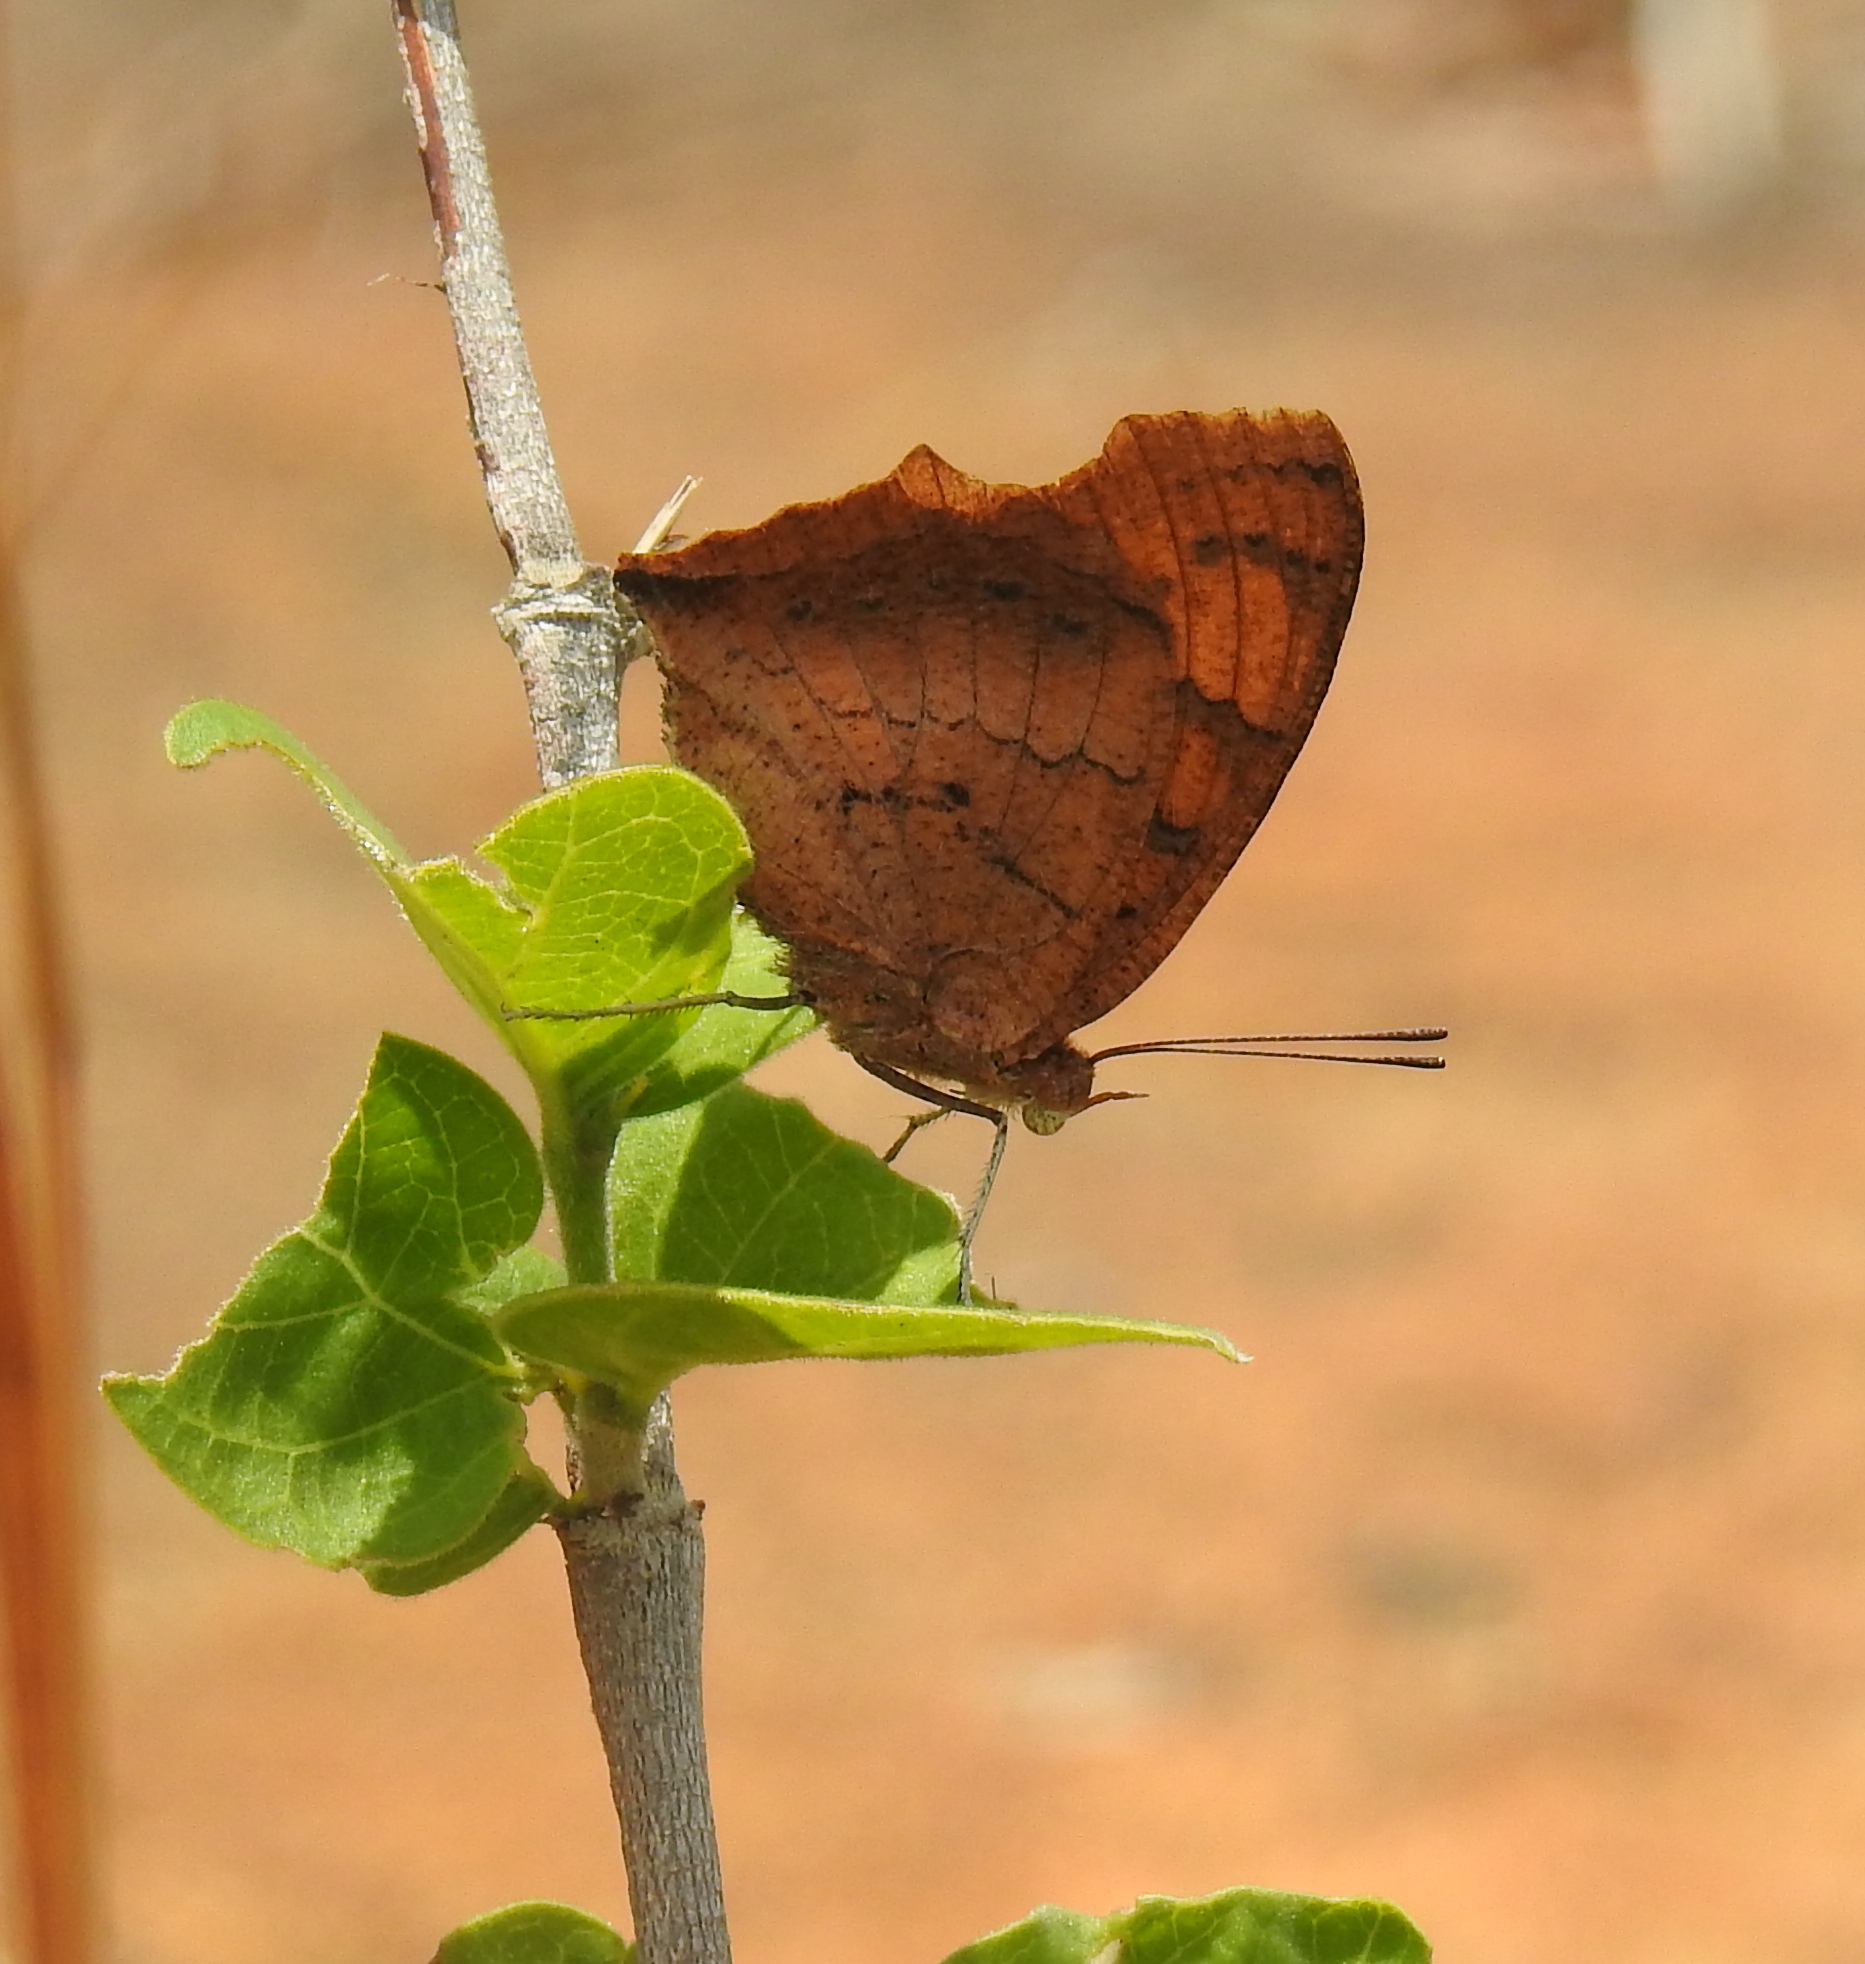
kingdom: Animalia
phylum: Arthropoda
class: Insecta
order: Lepidoptera
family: Nymphalidae
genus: Catacroptera
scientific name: Catacroptera cloanthe
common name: Pirate
